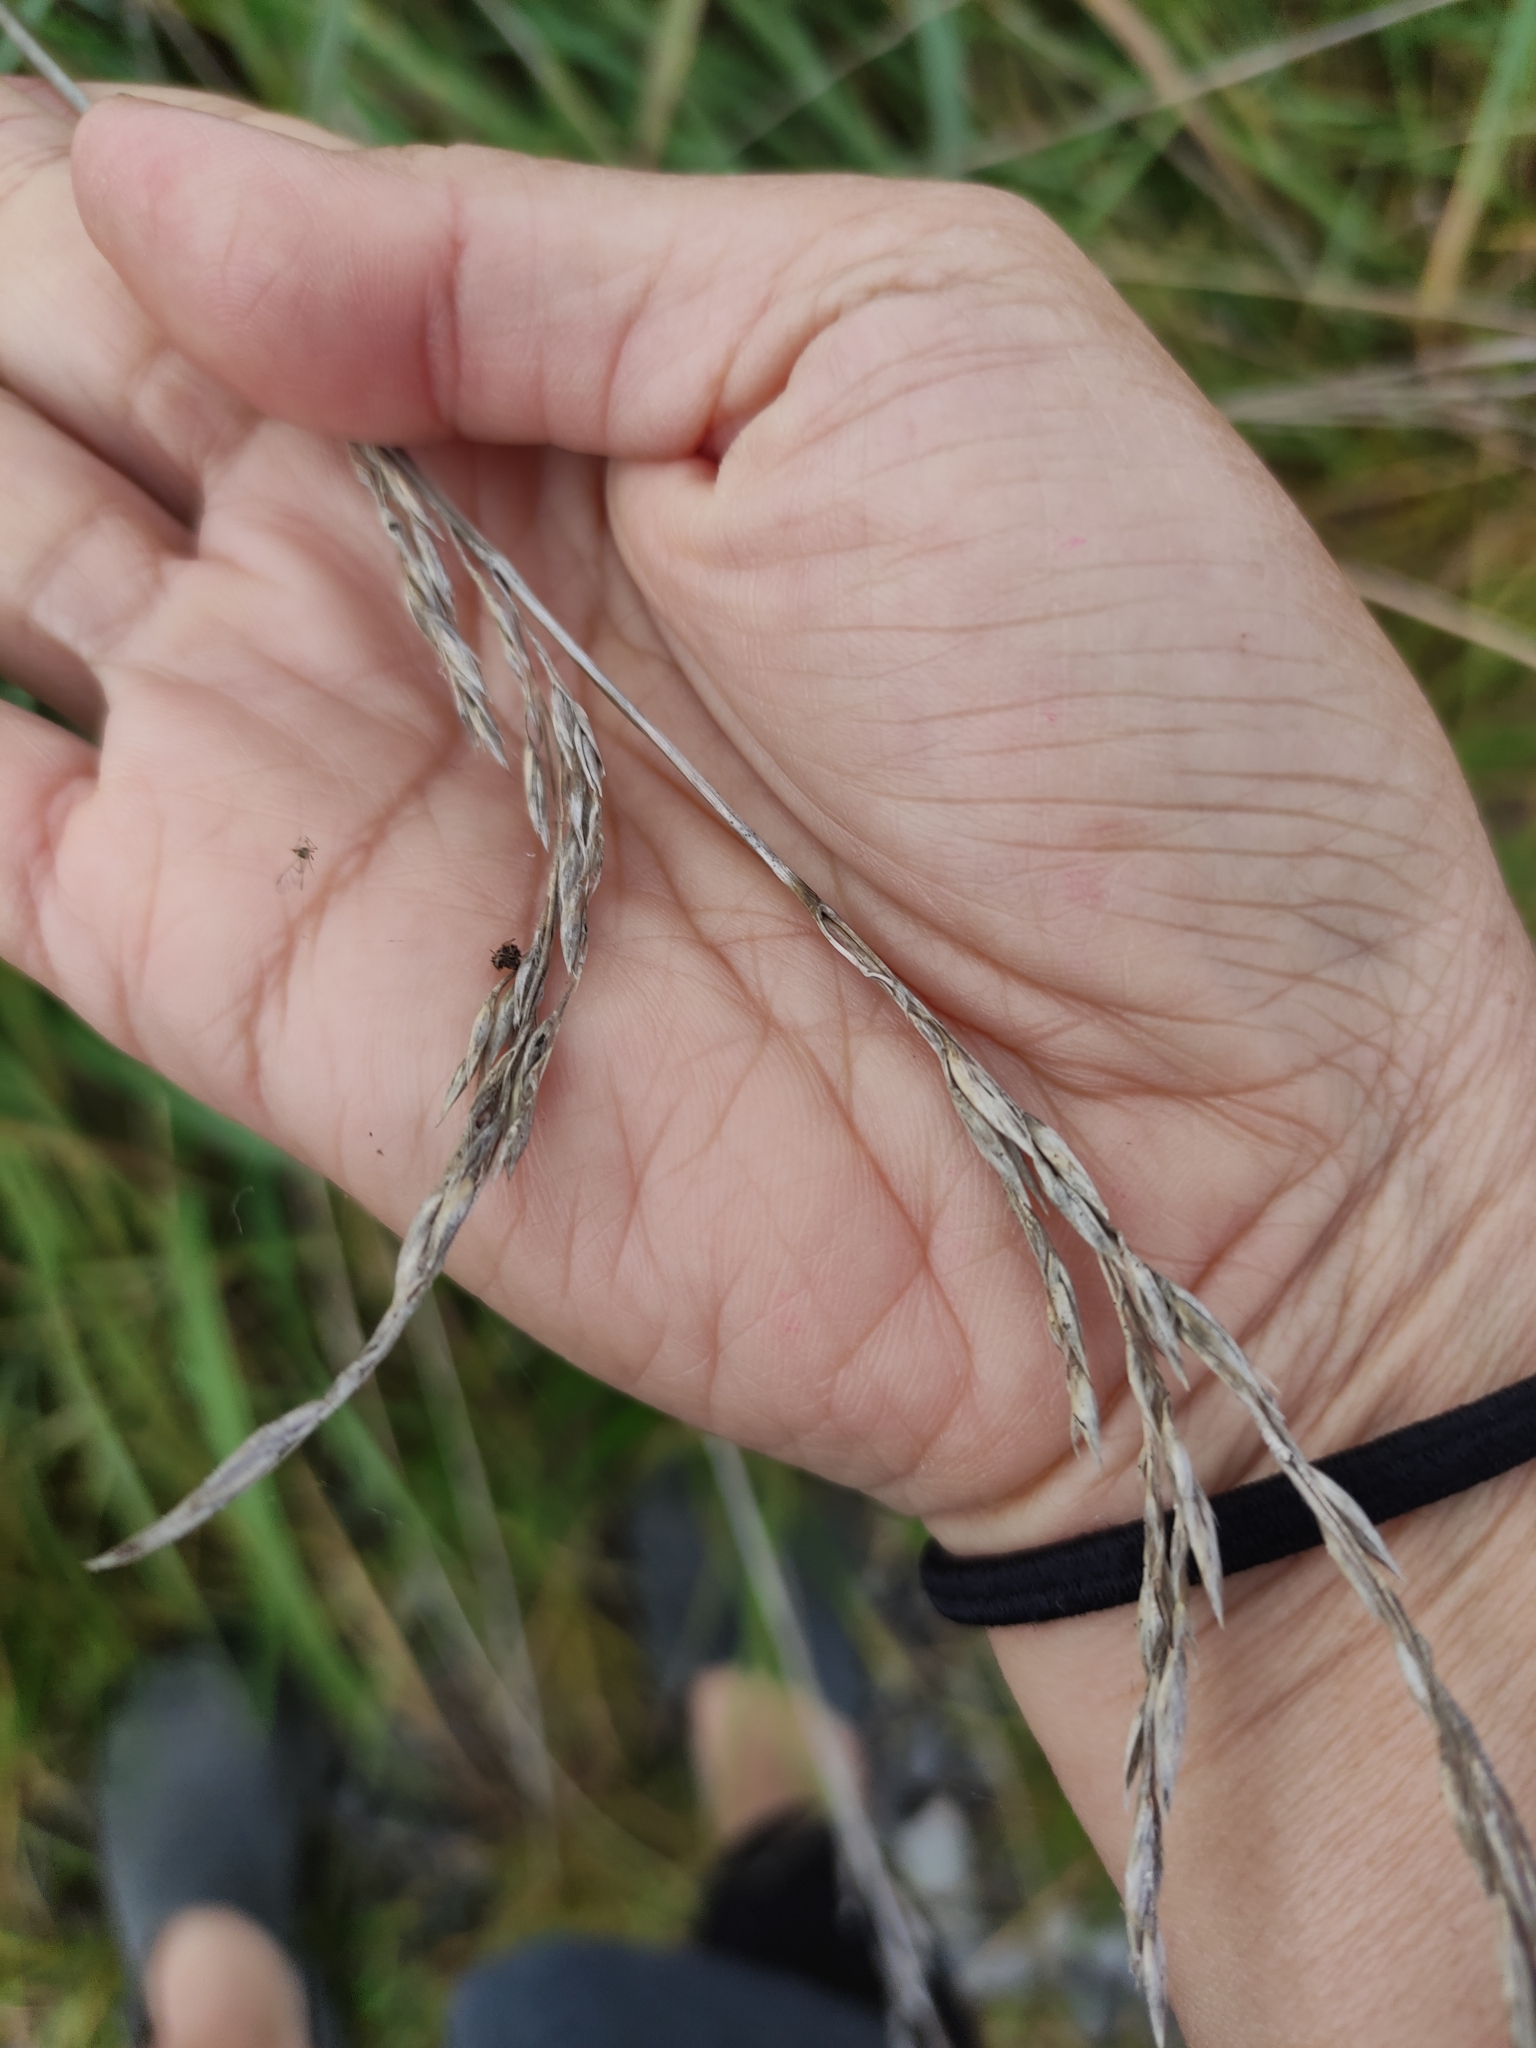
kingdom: Plantae
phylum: Tracheophyta
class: Liliopsida
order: Poales
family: Poaceae
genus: Lolium
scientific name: Lolium arundinaceum
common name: Reed fescue
